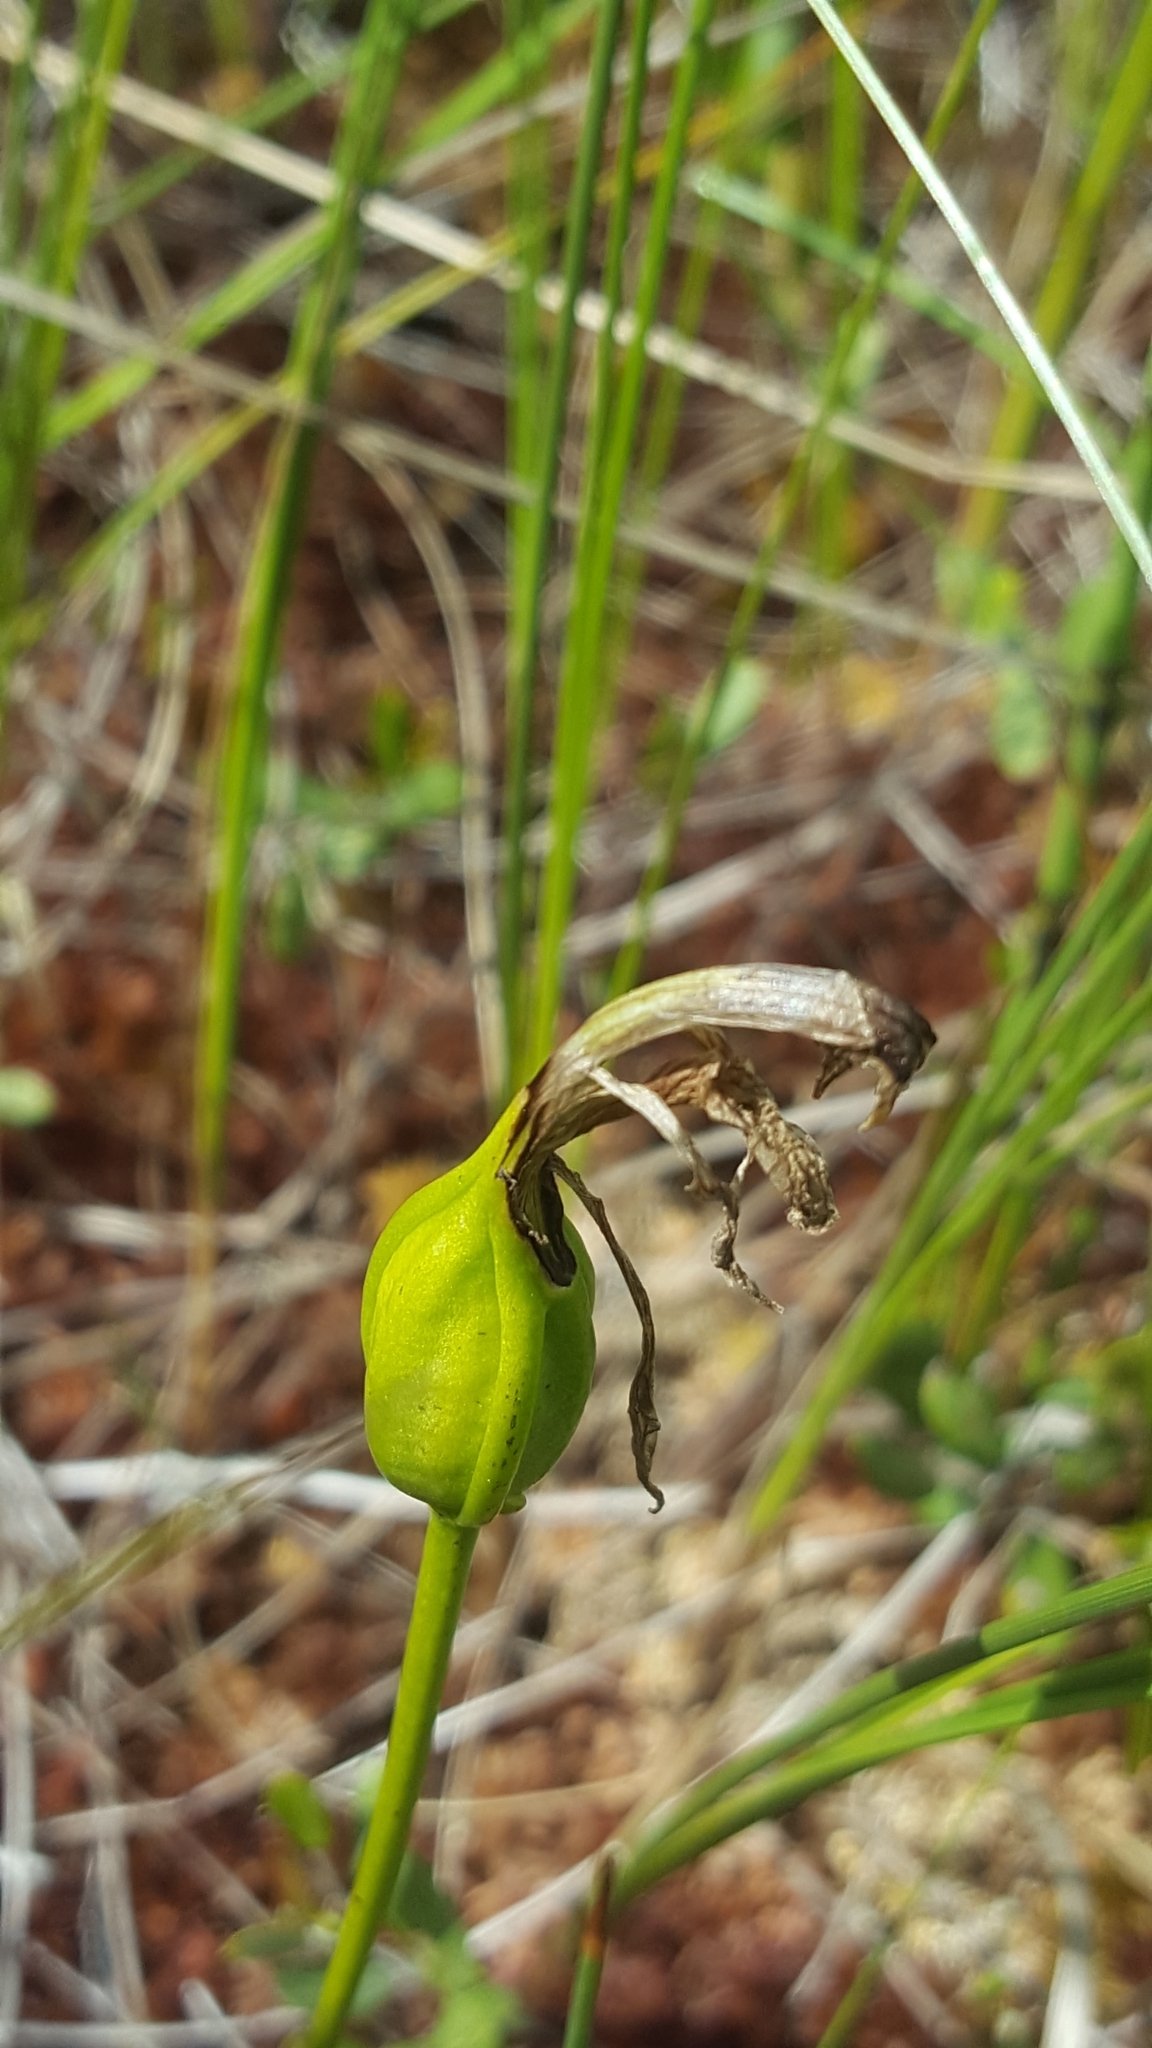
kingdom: Plantae
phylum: Tracheophyta
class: Liliopsida
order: Asparagales
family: Orchidaceae
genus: Arethusa
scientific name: Arethusa bulbosa
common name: Arethusa
